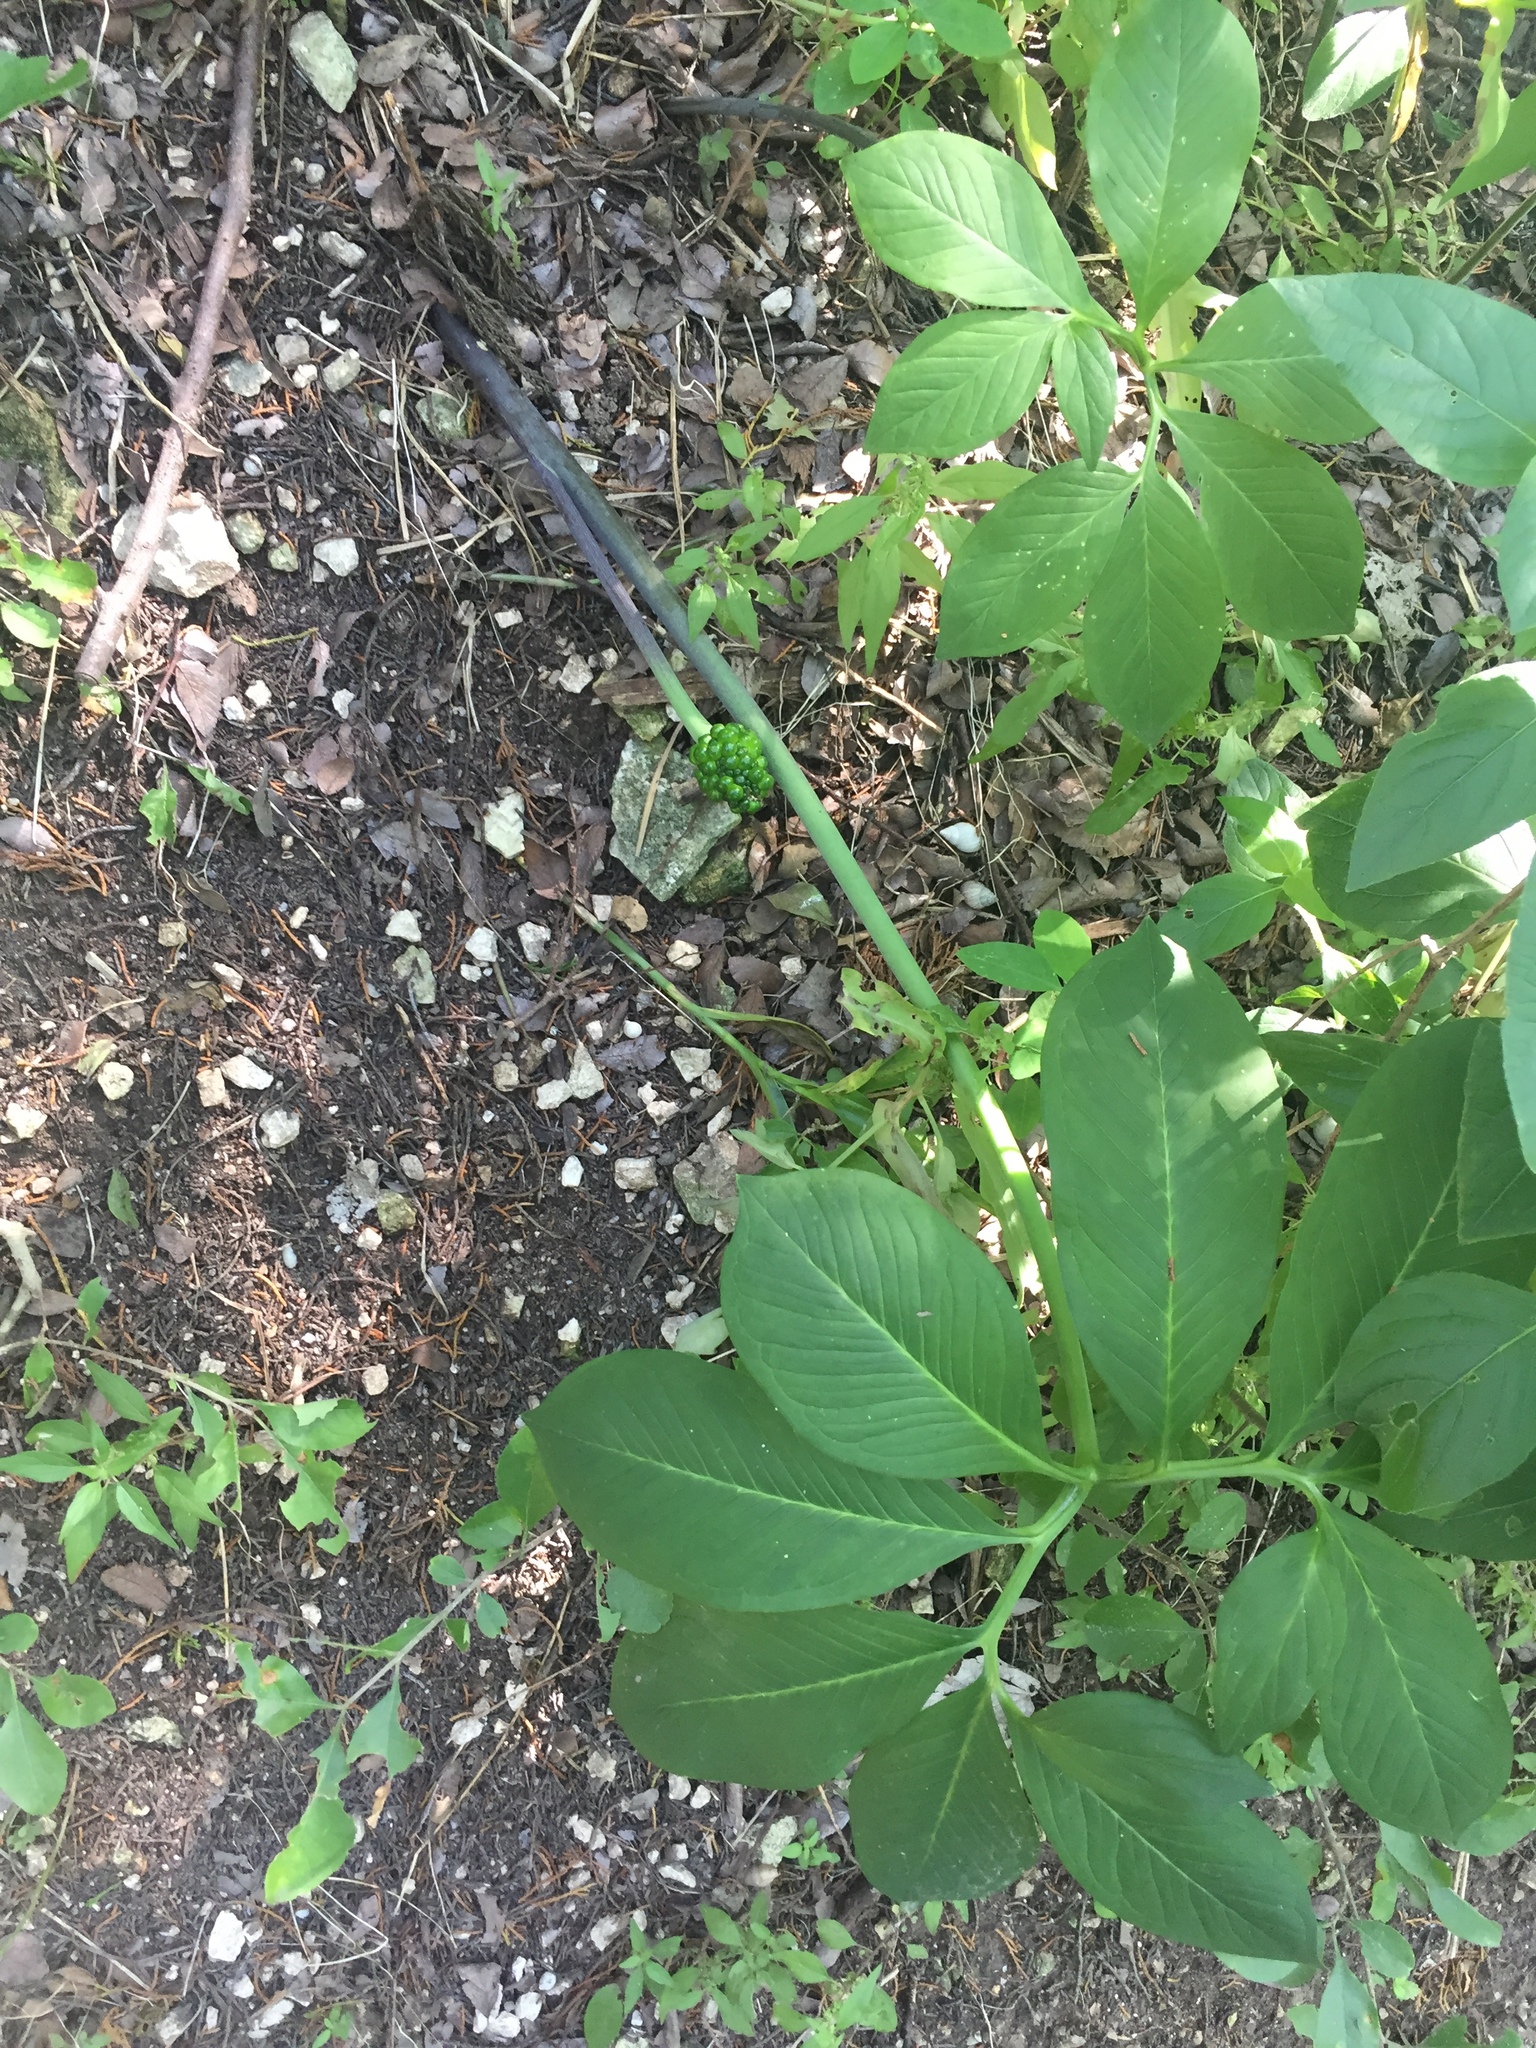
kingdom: Plantae
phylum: Tracheophyta
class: Liliopsida
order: Alismatales
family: Araceae
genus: Arisaema
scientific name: Arisaema dracontium
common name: Dragon-arum
